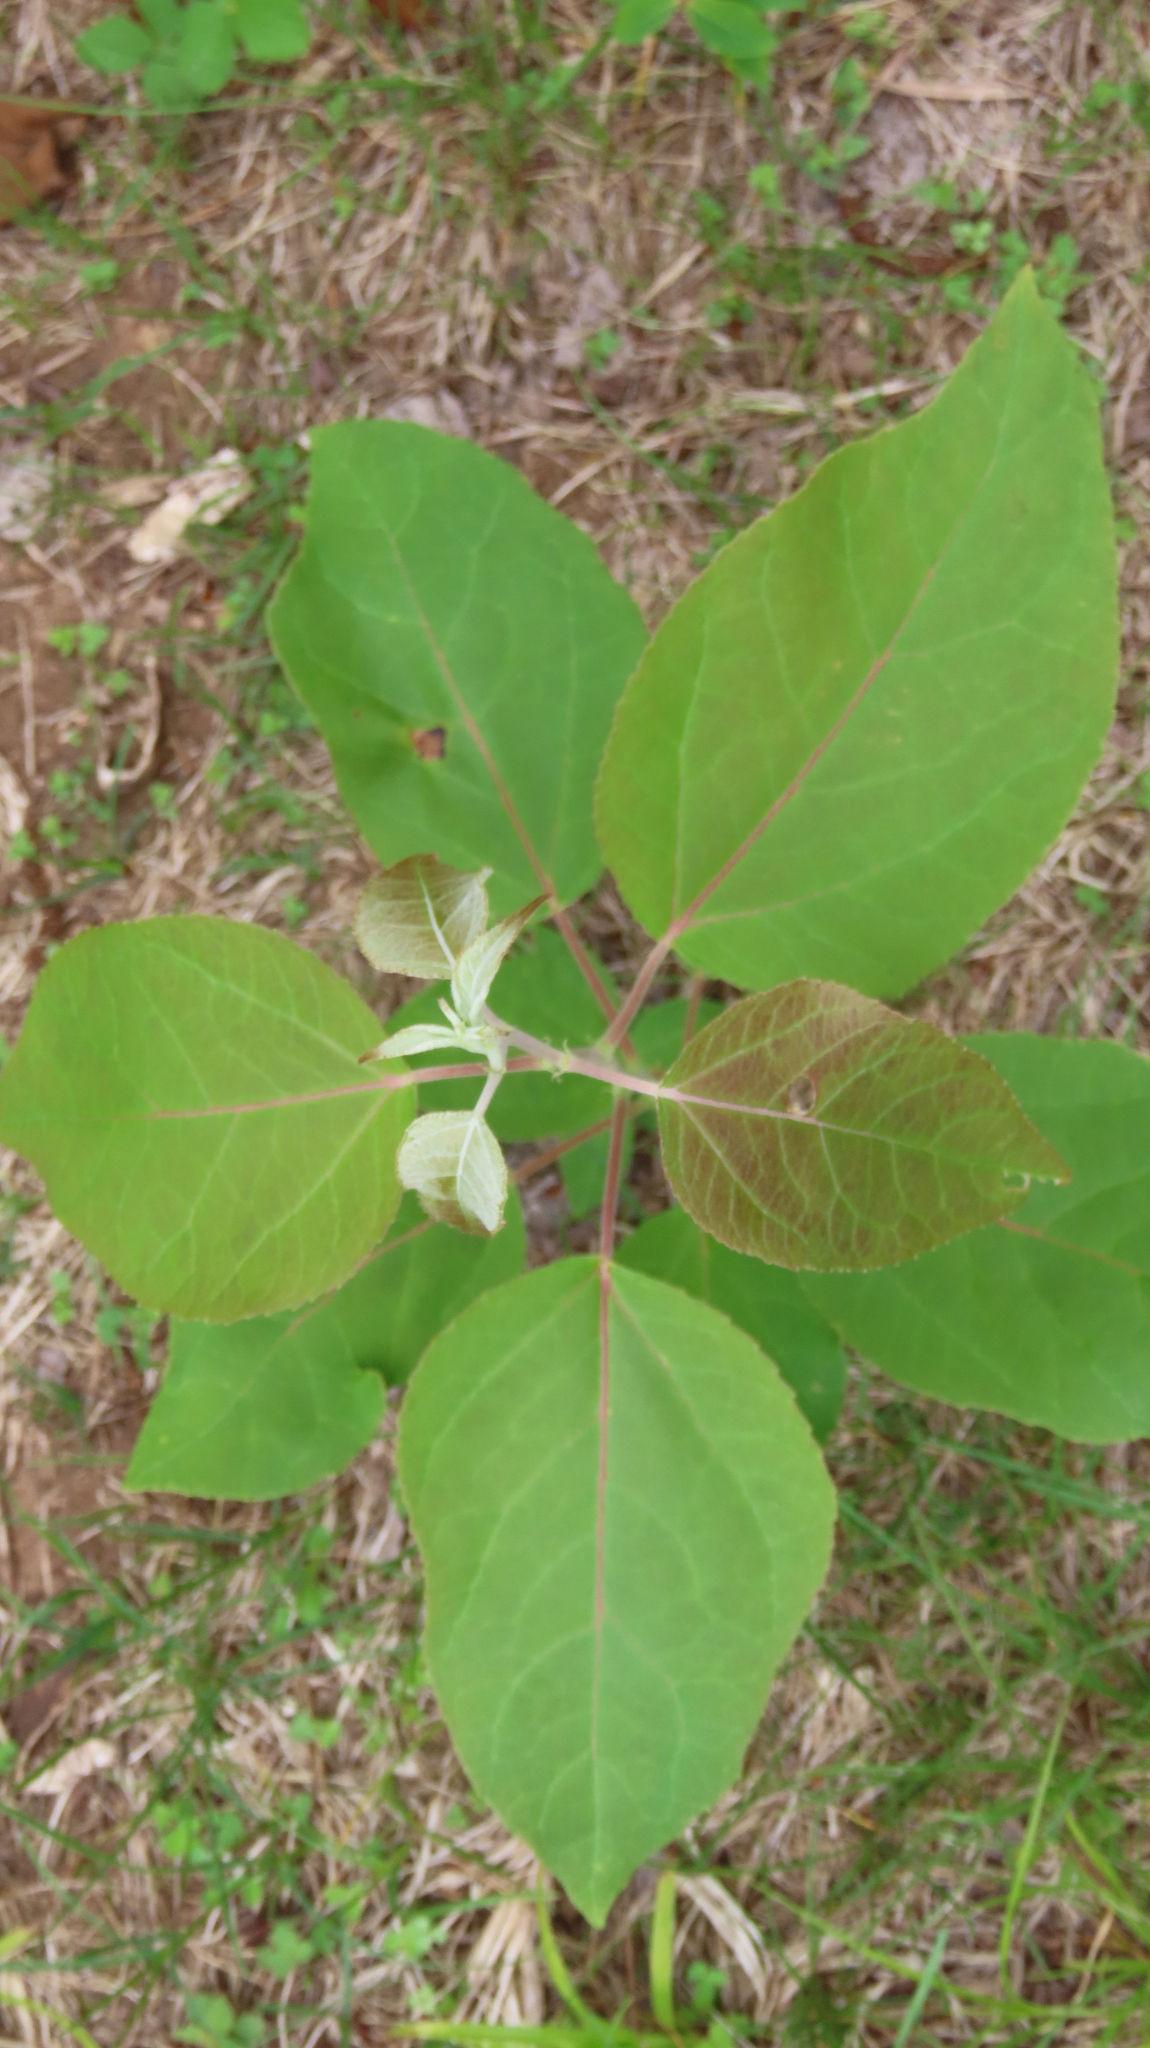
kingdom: Plantae
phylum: Tracheophyta
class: Magnoliopsida
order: Malpighiales
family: Salicaceae
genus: Populus
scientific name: Populus balsamifera
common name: Balsam poplar
